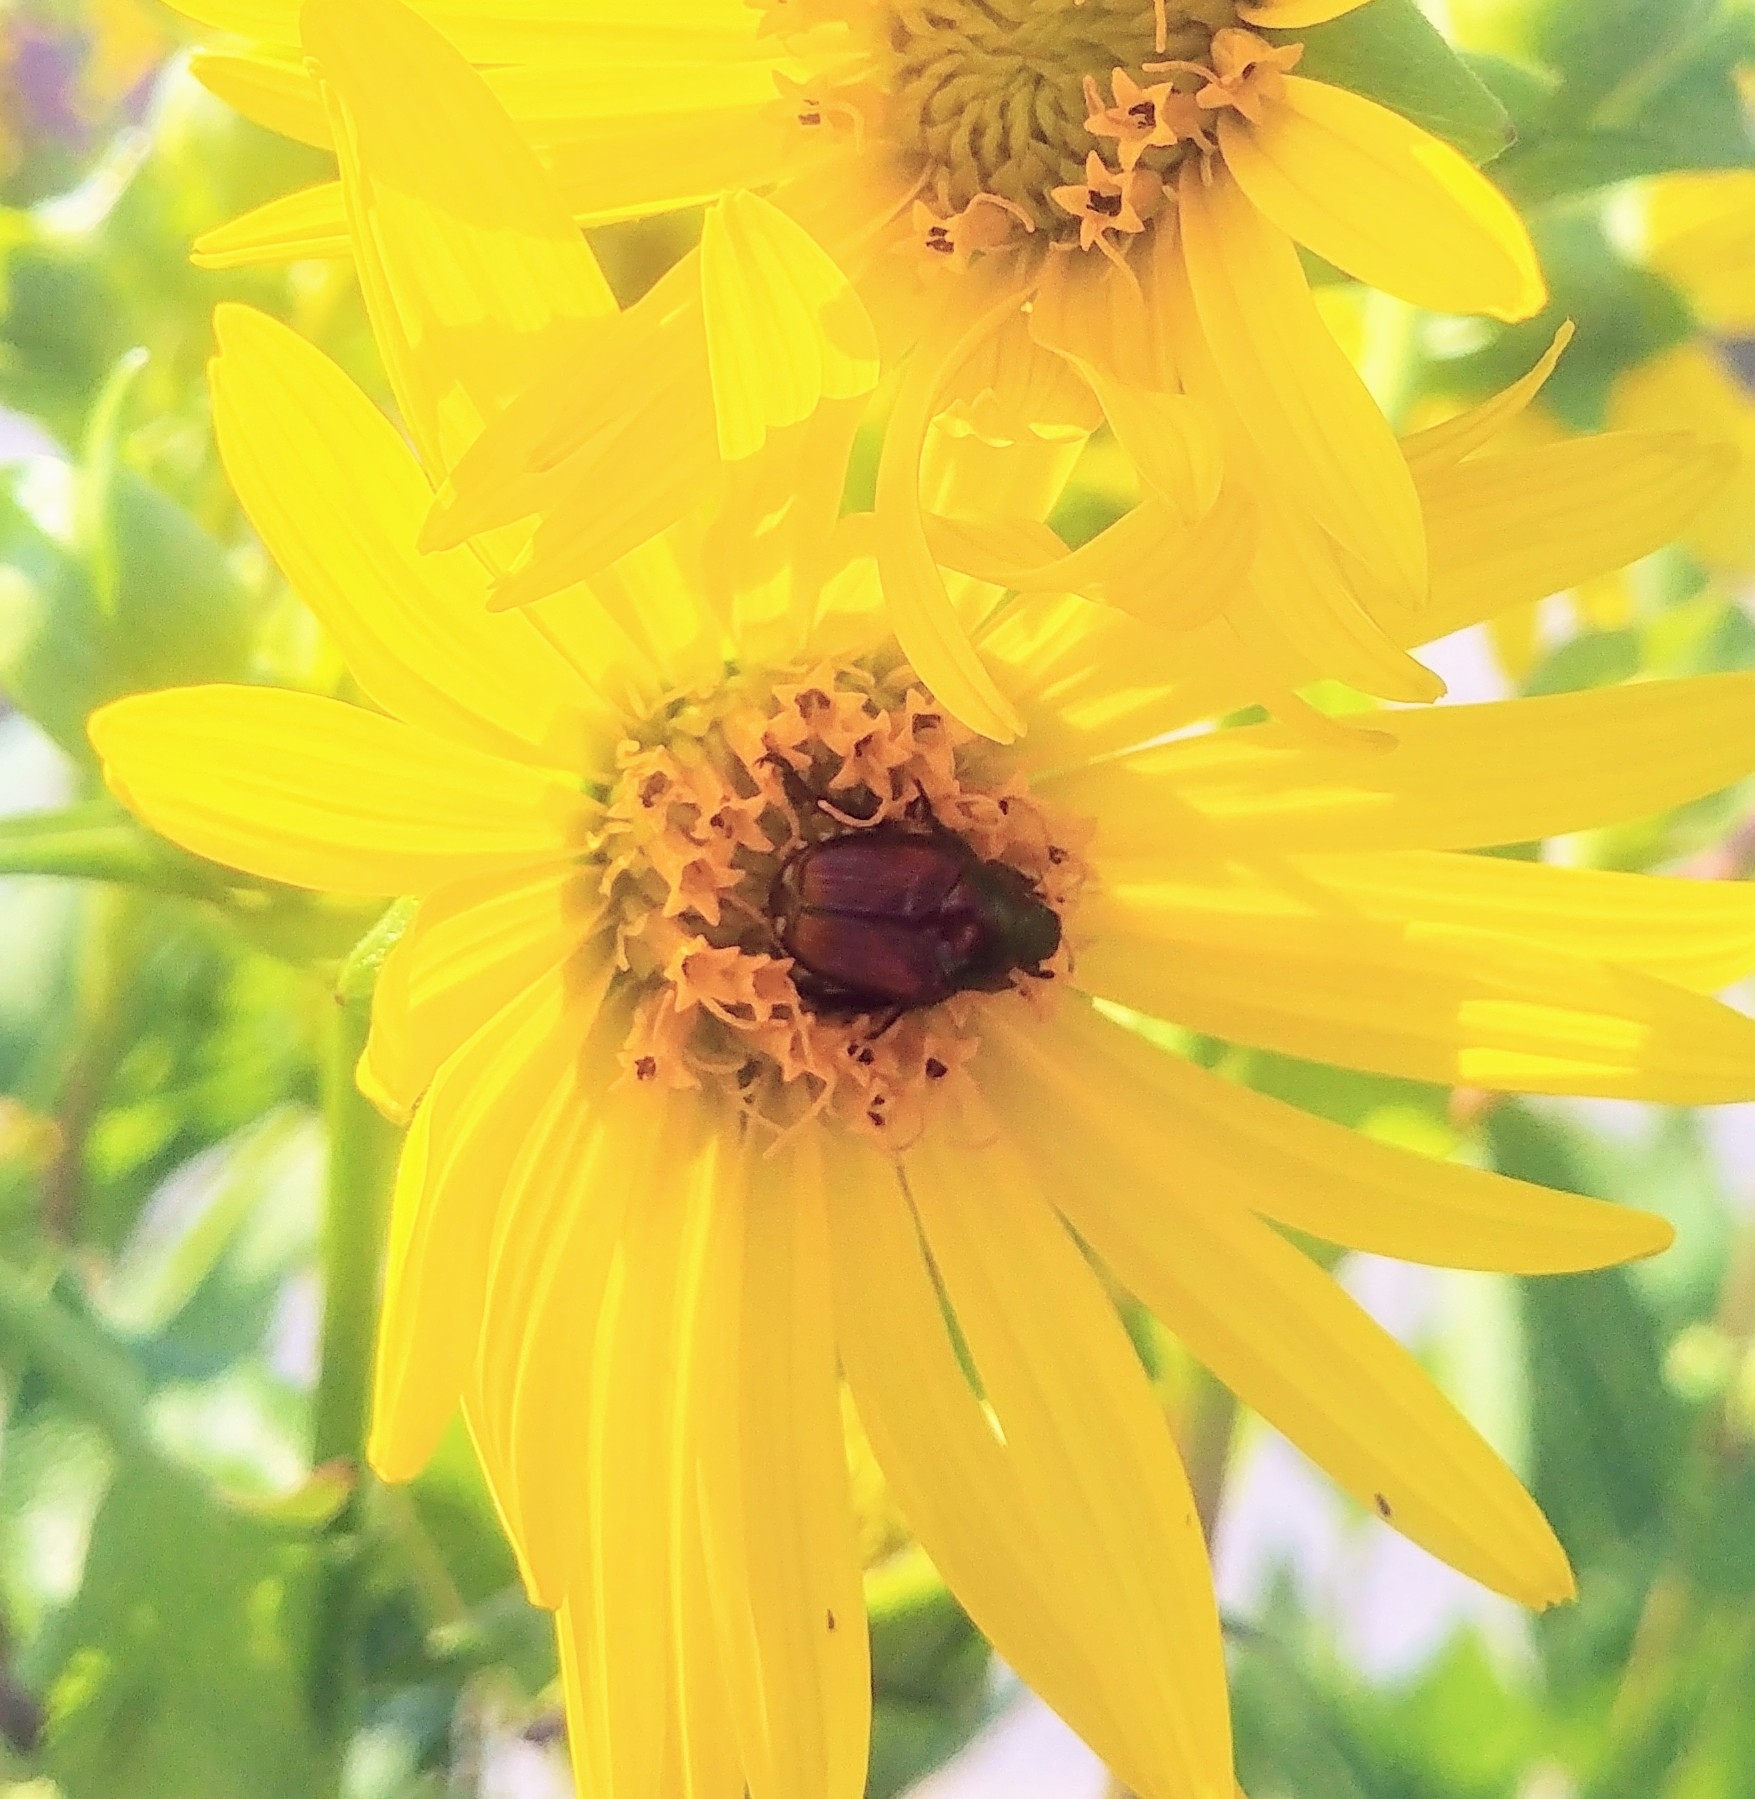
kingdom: Animalia
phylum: Arthropoda
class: Insecta
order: Coleoptera
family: Scarabaeidae
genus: Popillia
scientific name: Popillia japonica
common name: Japanese beetle
